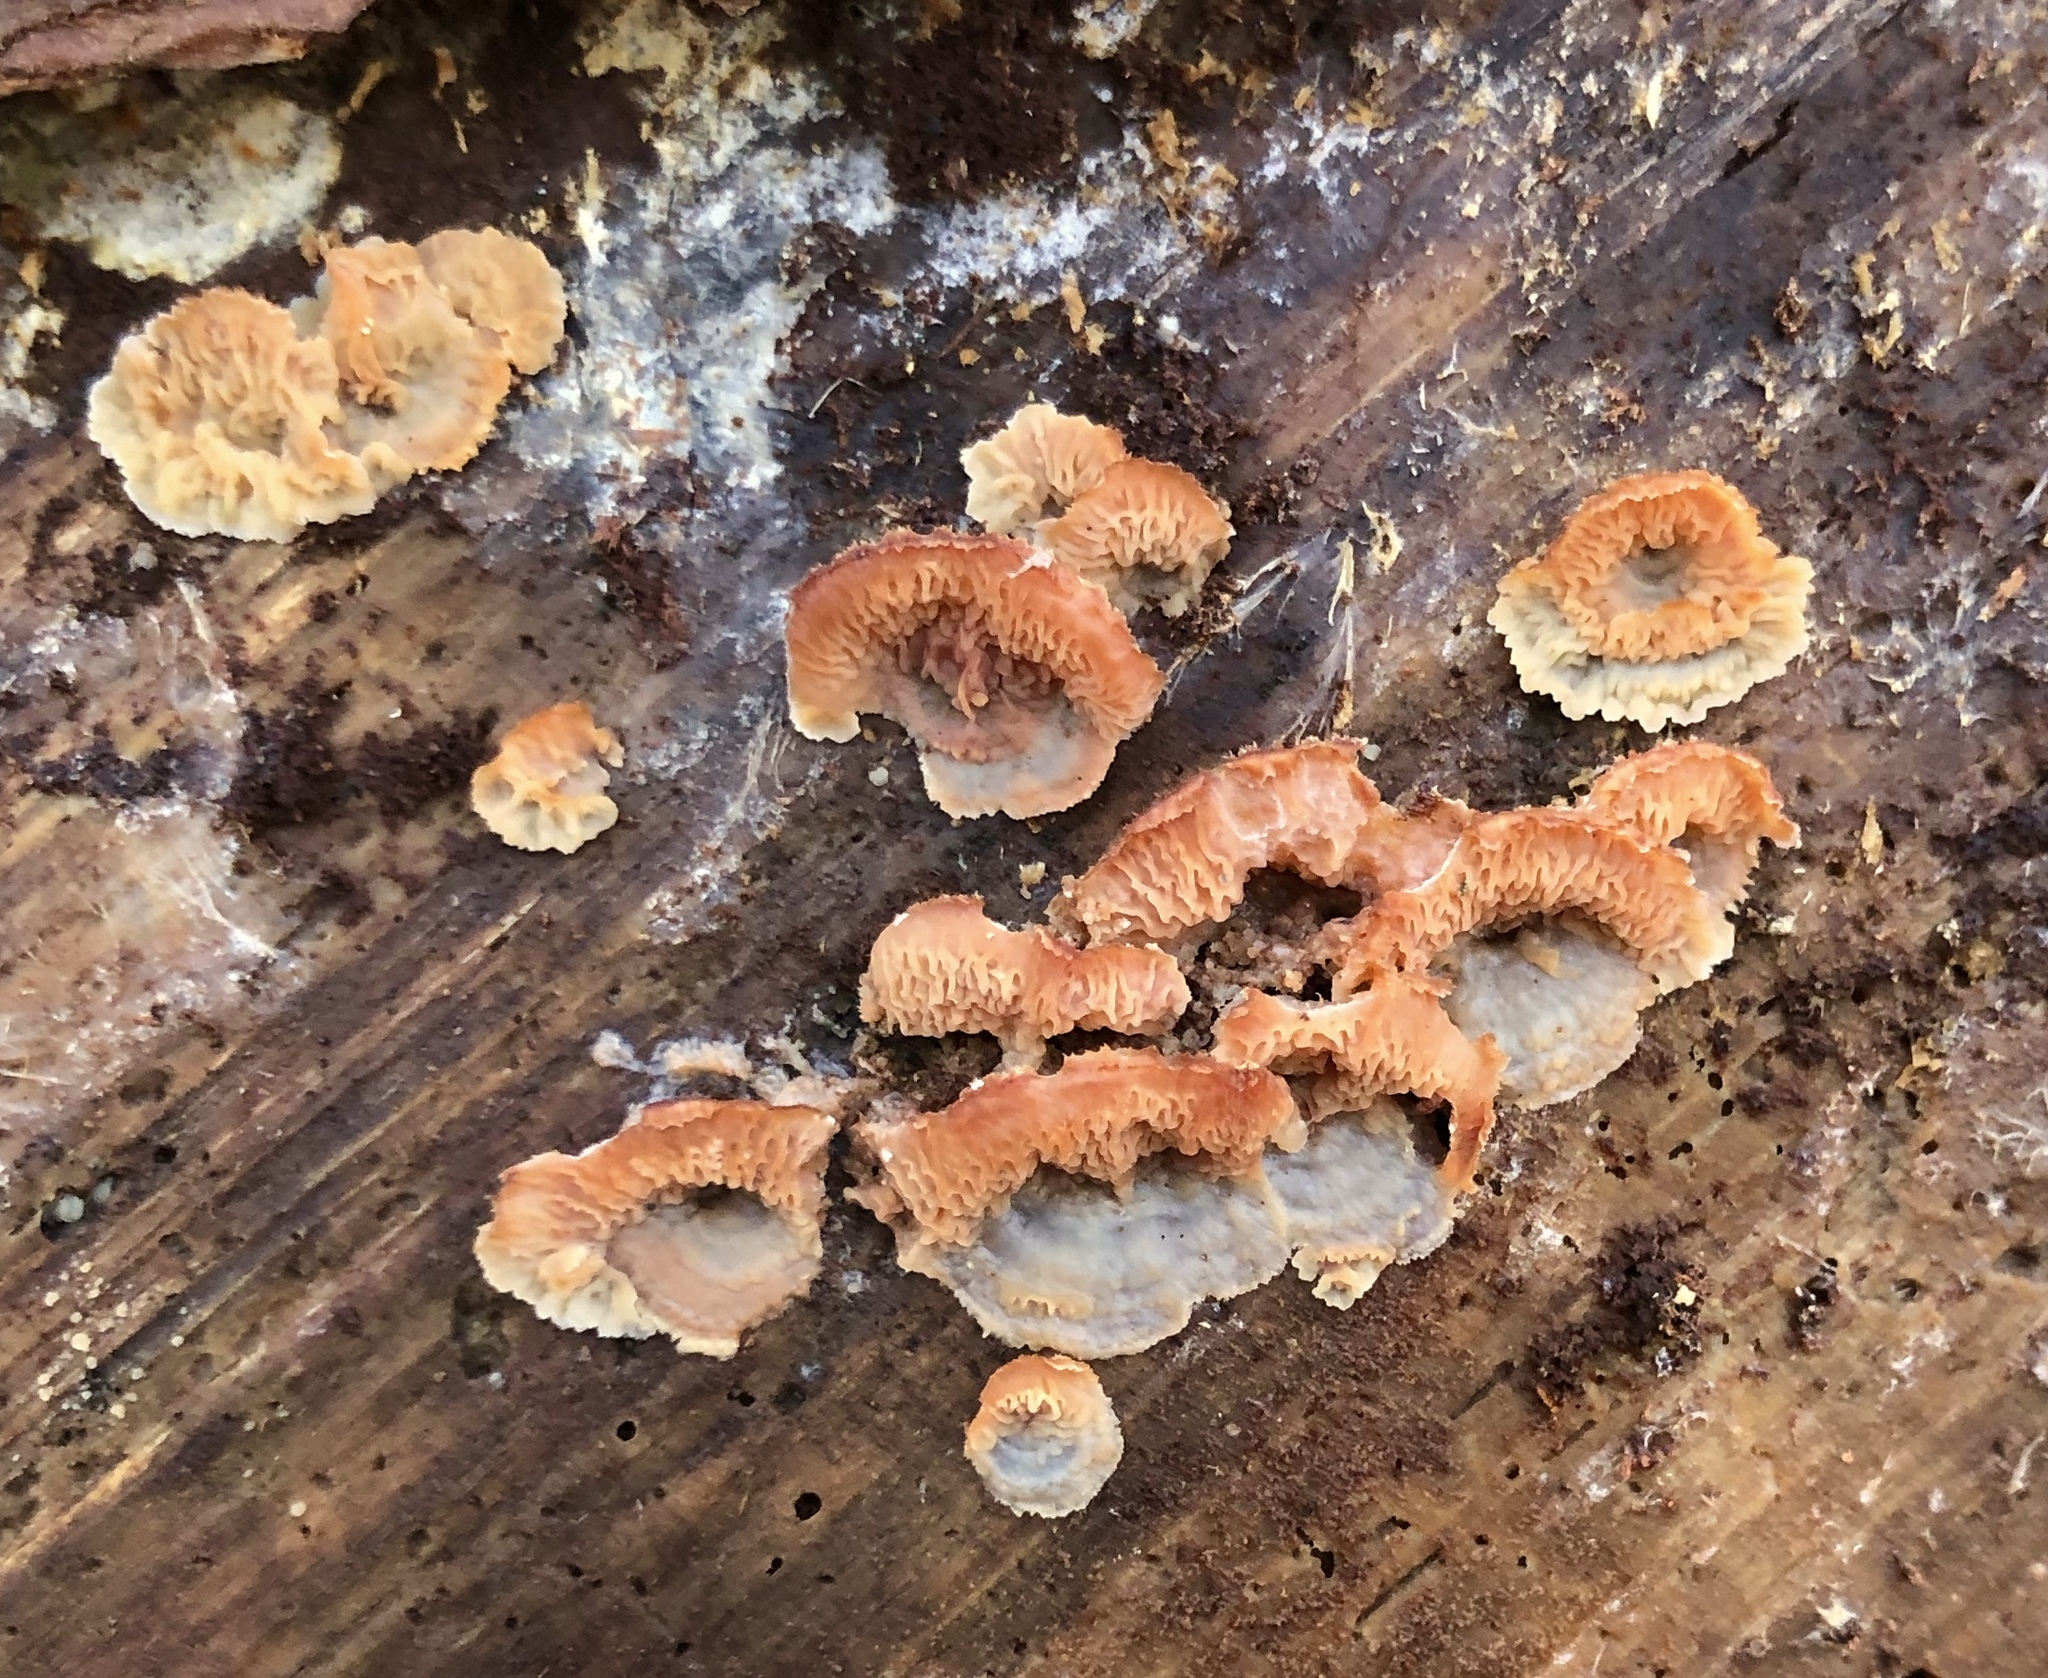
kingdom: Fungi
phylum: Basidiomycota
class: Agaricomycetes
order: Polyporales
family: Meruliaceae
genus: Phlebia
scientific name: Phlebia tremellosa
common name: Jelly rot
